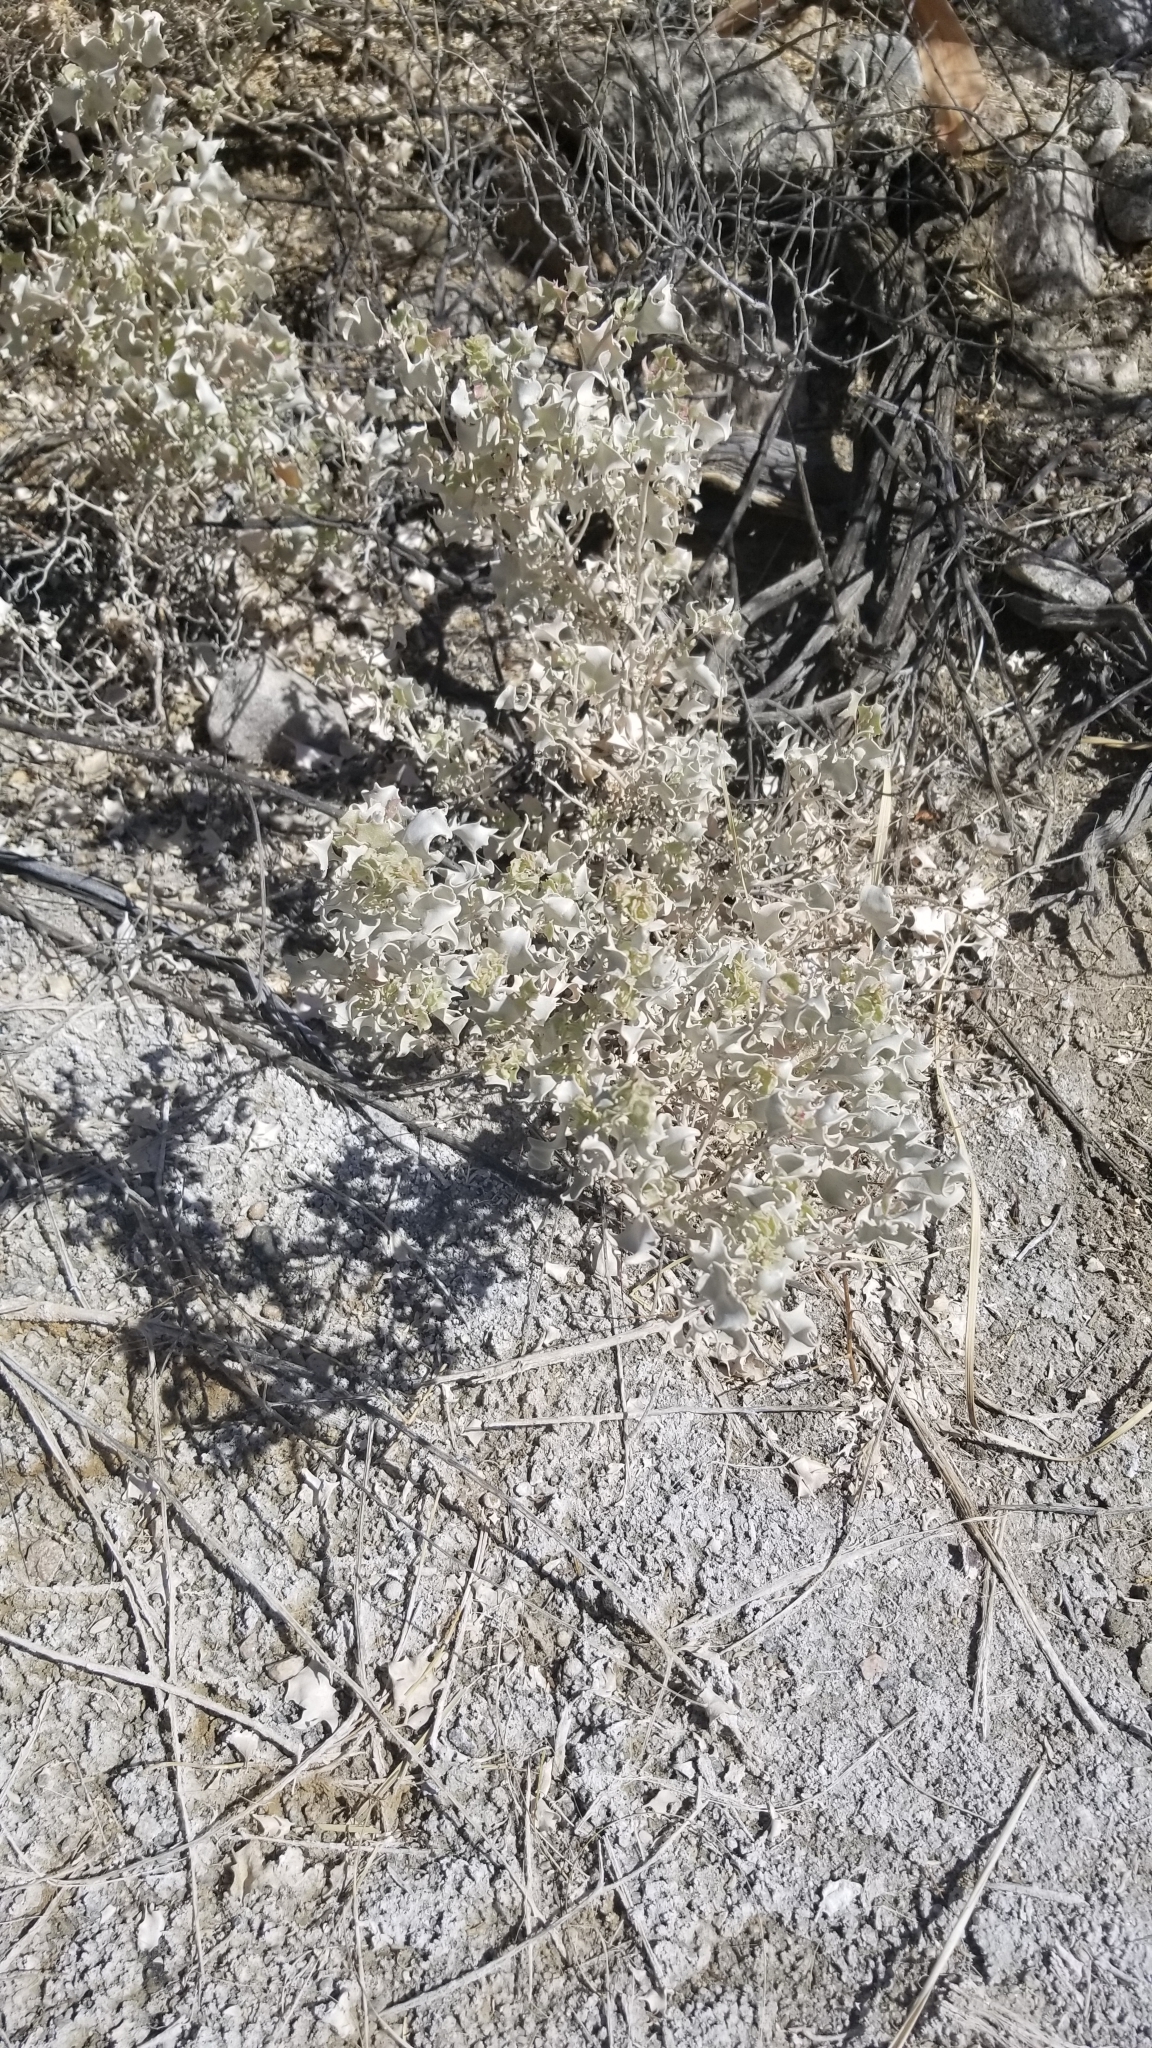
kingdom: Plantae
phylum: Tracheophyta
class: Magnoliopsida
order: Caryophyllales
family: Amaranthaceae
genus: Atriplex
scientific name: Atriplex hymenelytra
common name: Desert-holly
